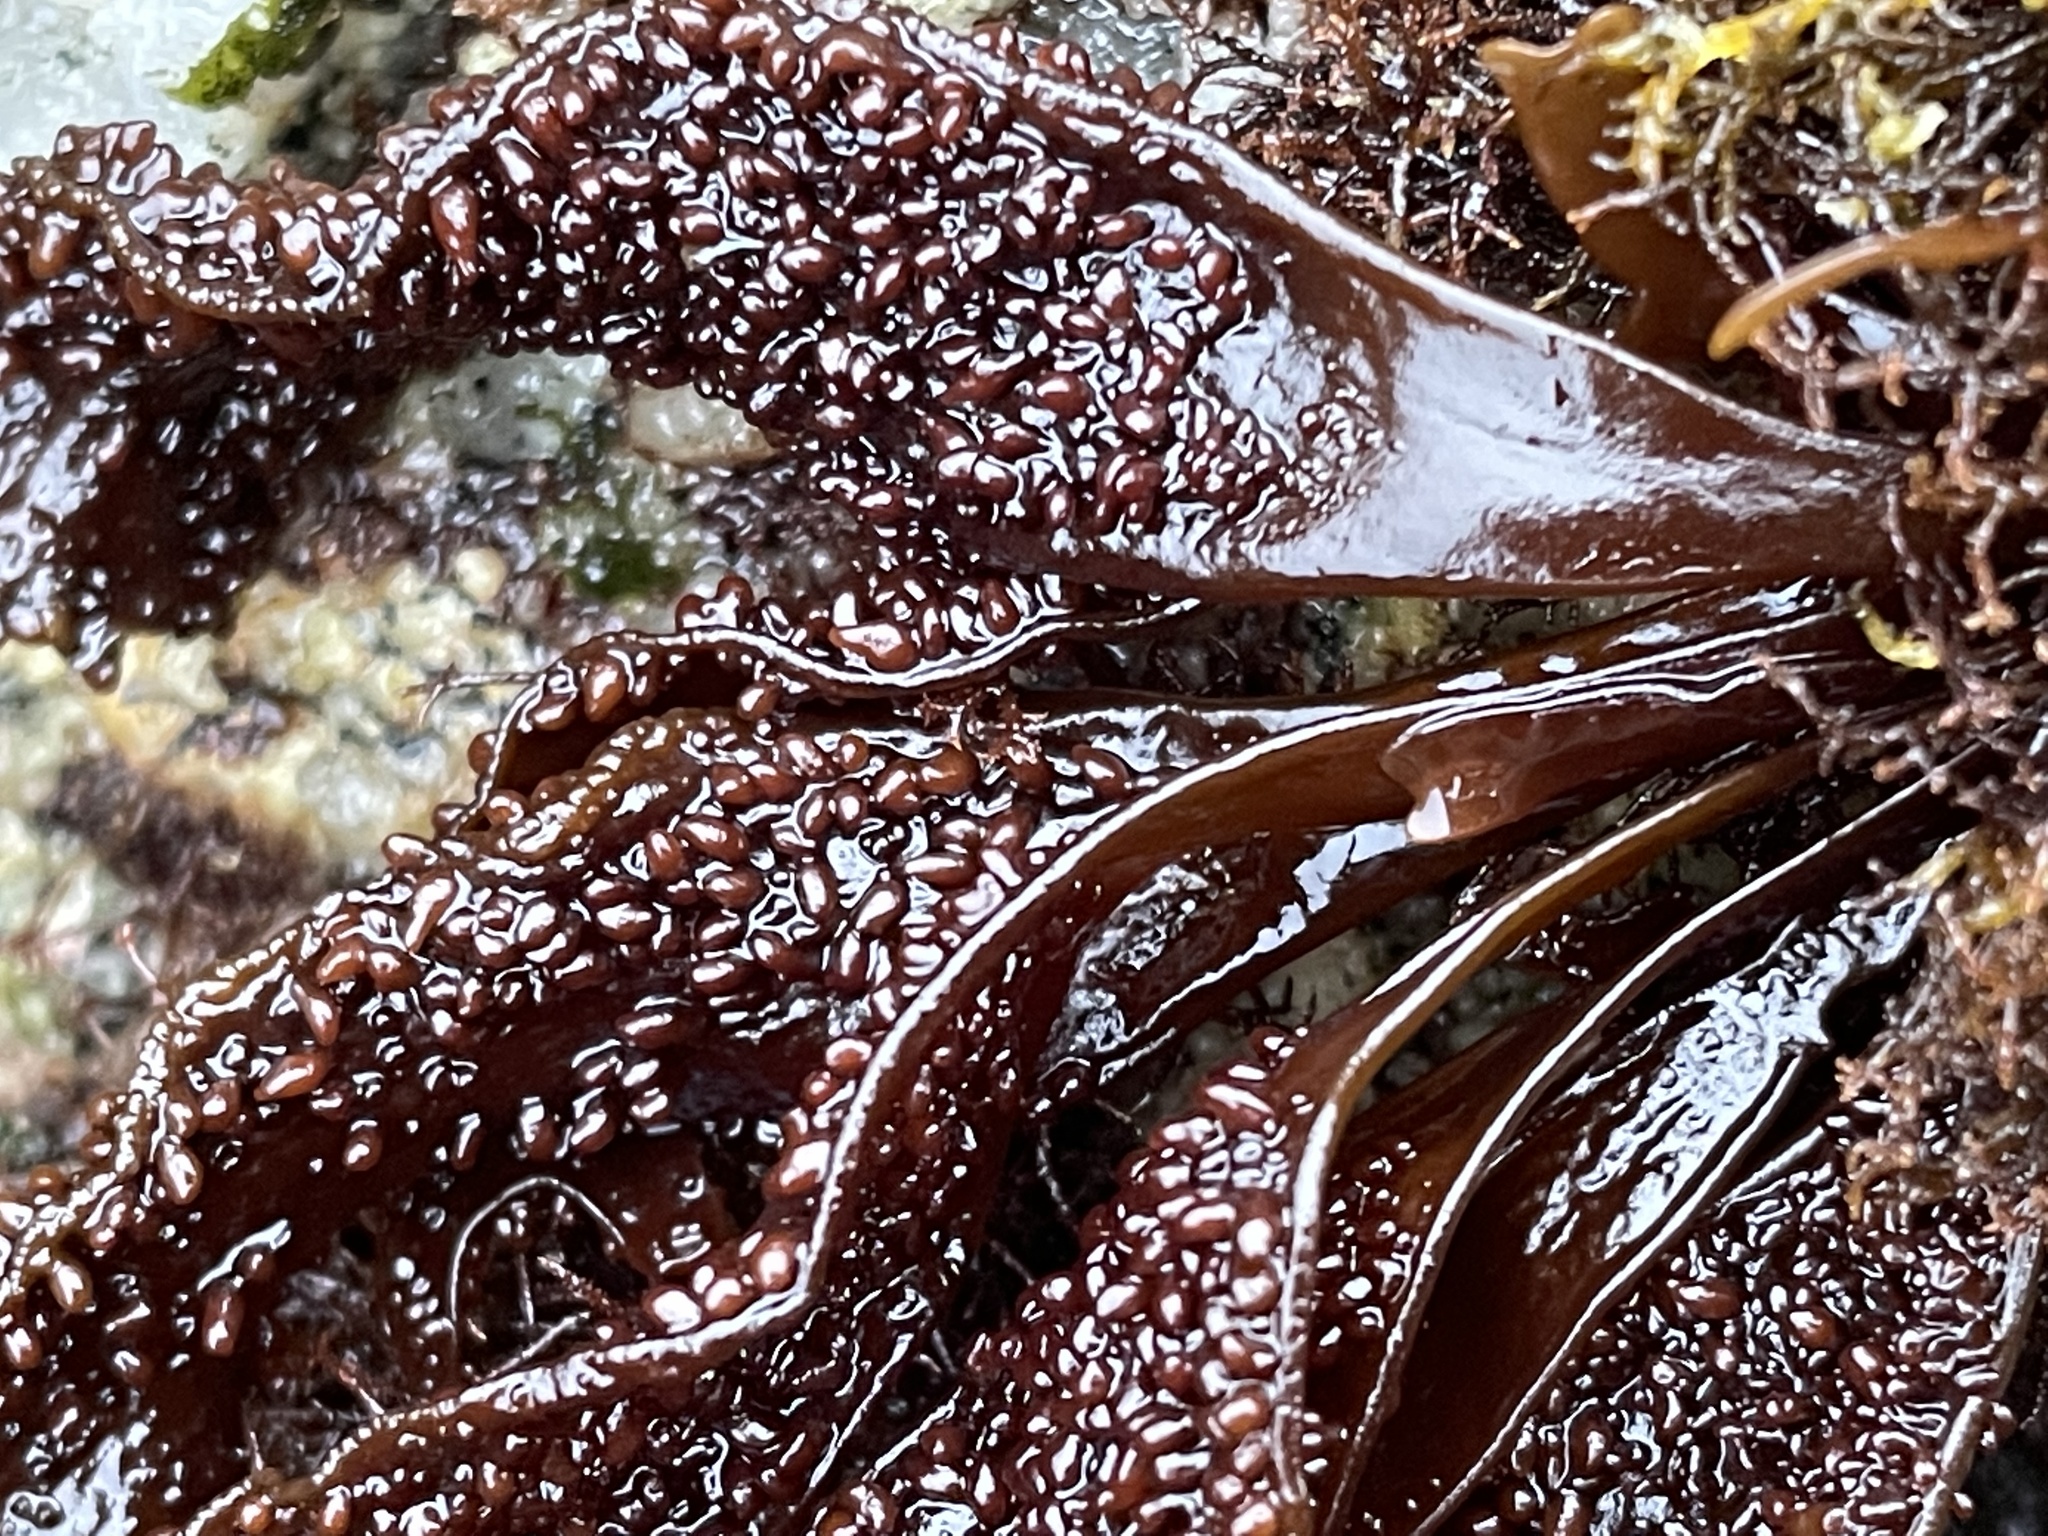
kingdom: Plantae
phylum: Rhodophyta
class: Florideophyceae
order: Gigartinales
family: Phyllophoraceae
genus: Mastocarpus
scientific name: Mastocarpus papillatus
